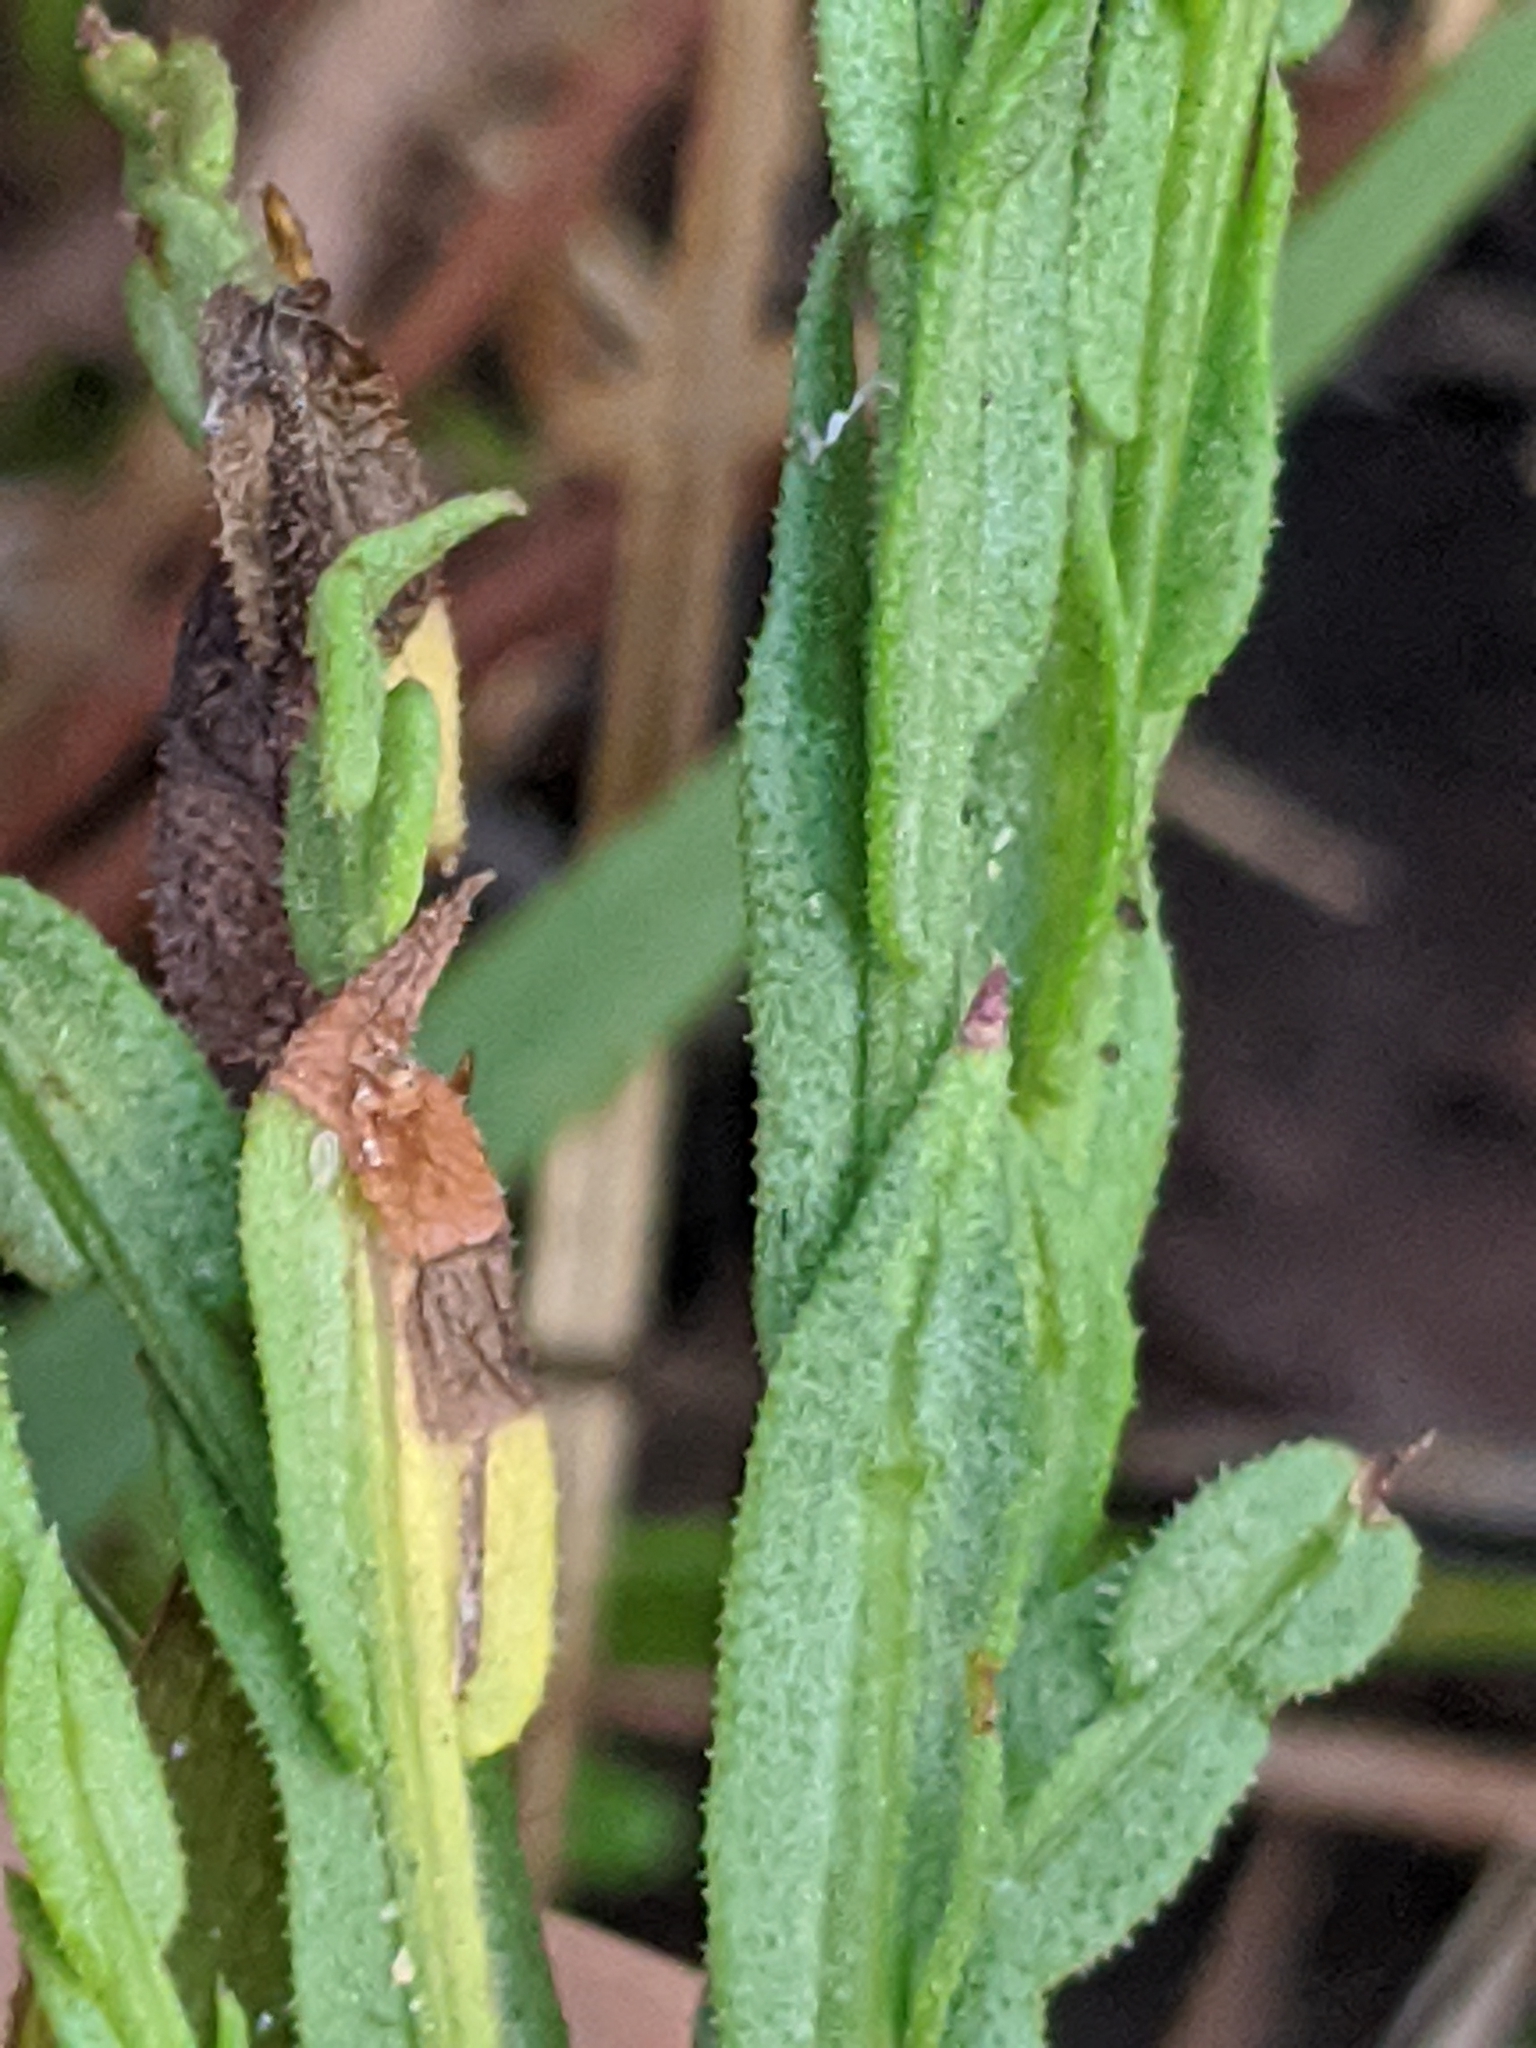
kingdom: Plantae
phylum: Tracheophyta
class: Magnoliopsida
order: Asterales
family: Asteraceae
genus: Symphyotrichum
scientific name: Symphyotrichum adnatum
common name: Scale-leaf aster
